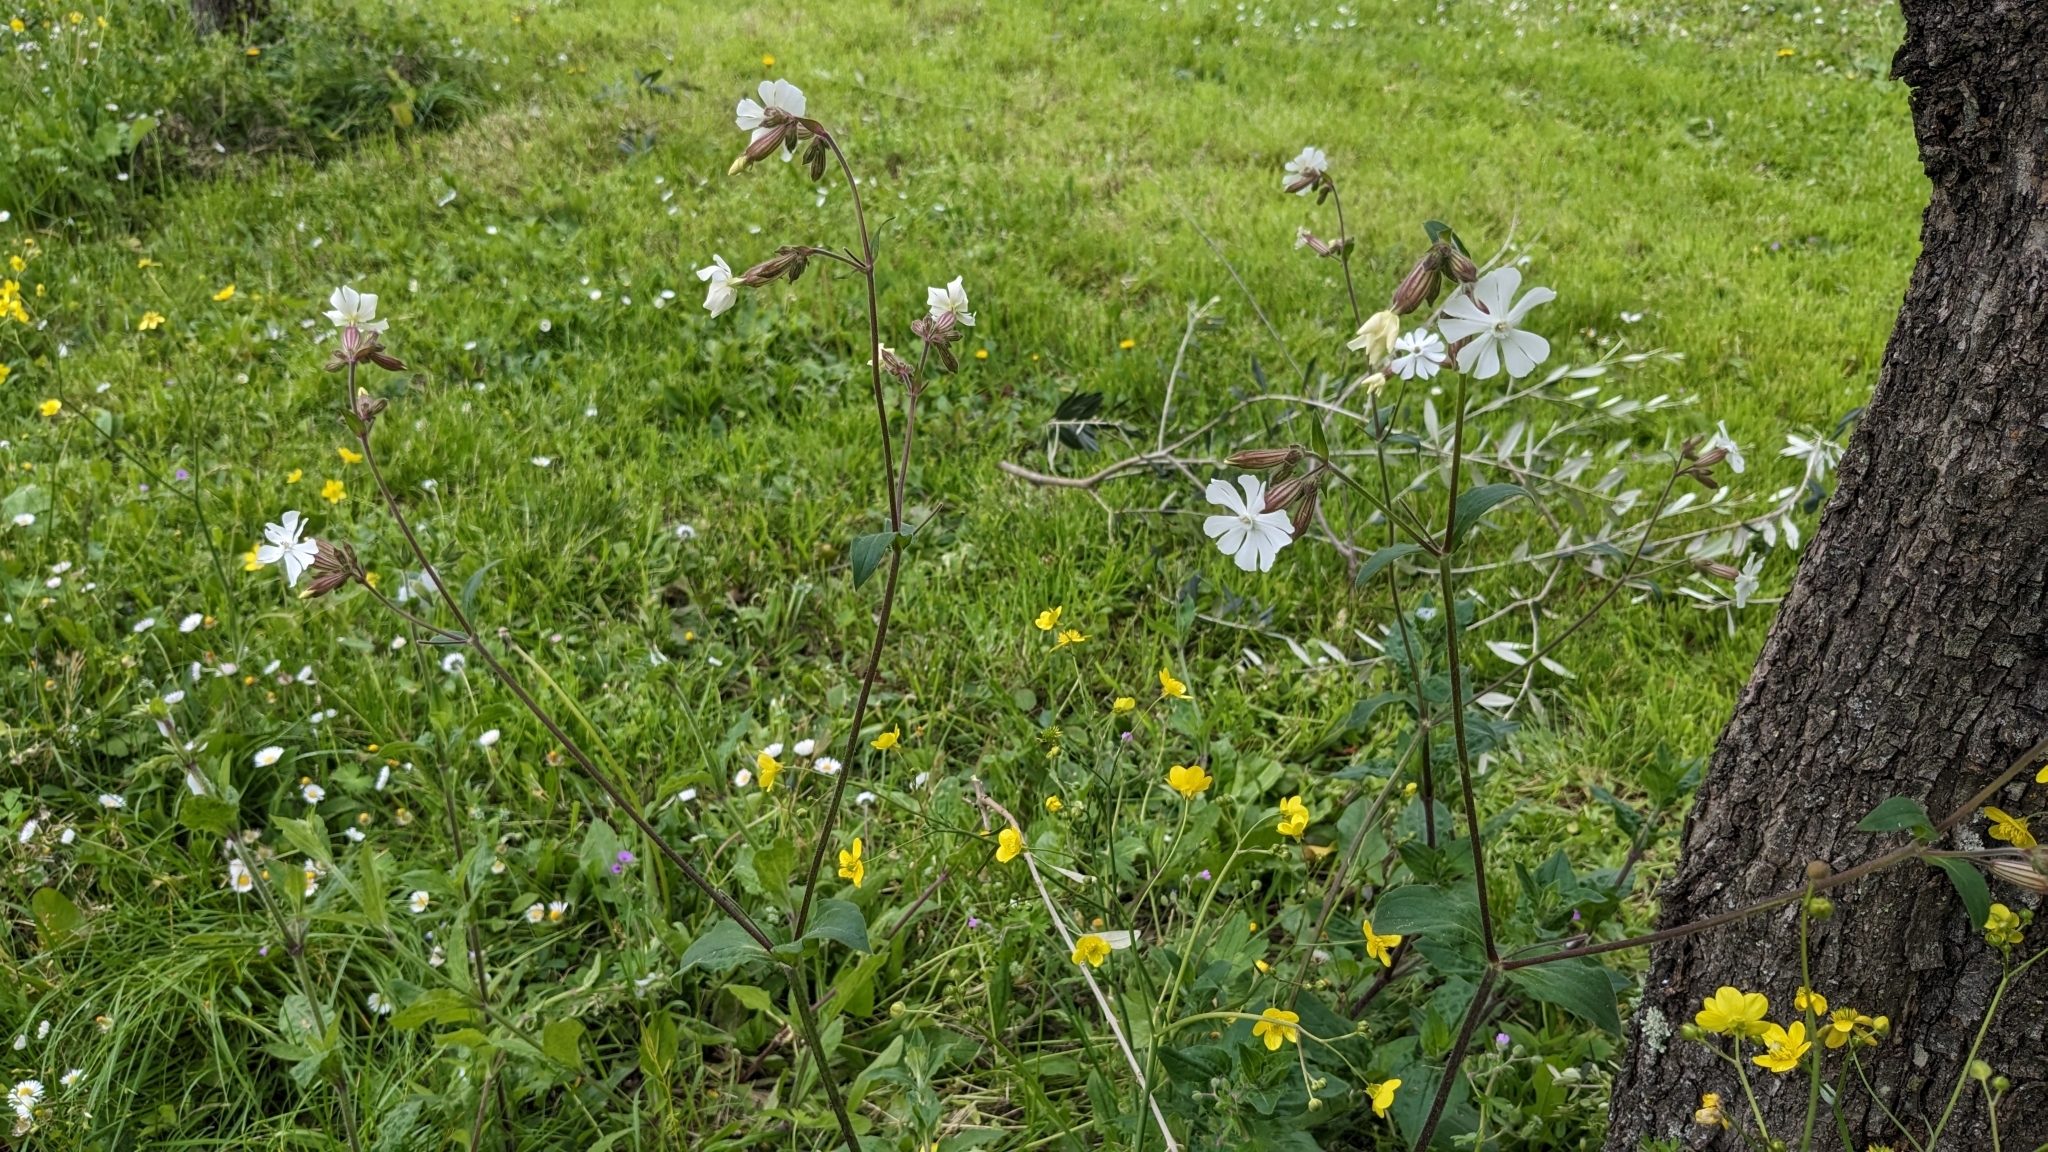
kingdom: Plantae
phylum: Tracheophyta
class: Magnoliopsida
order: Caryophyllales
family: Caryophyllaceae
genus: Silene
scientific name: Silene latifolia
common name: White campion
